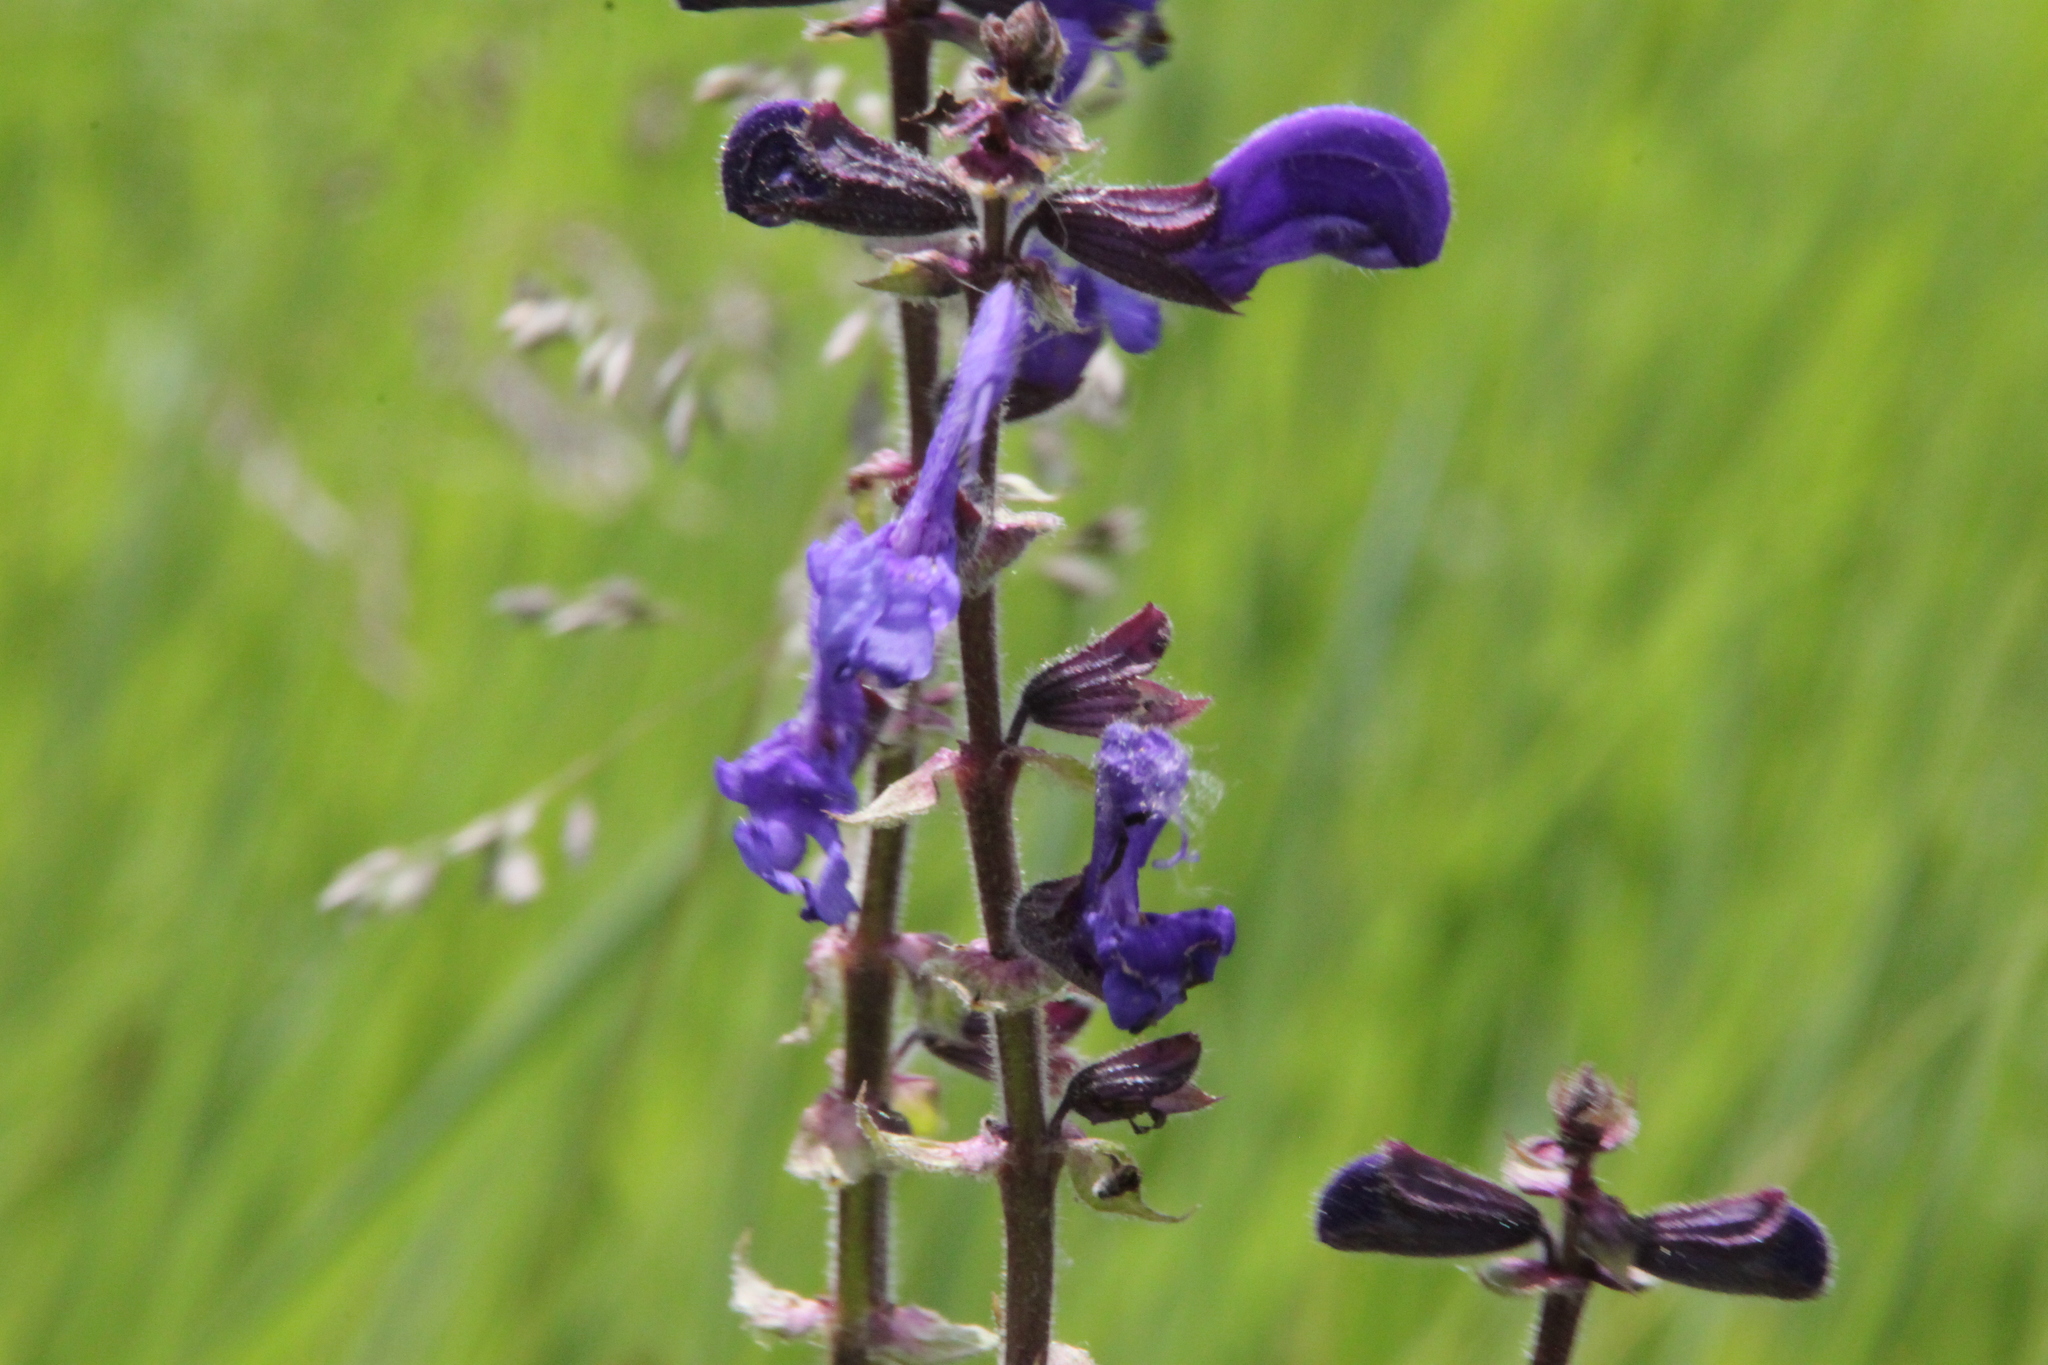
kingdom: Plantae
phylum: Tracheophyta
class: Magnoliopsida
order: Lamiales
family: Lamiaceae
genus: Salvia
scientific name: Salvia pratensis
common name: Meadow sage
